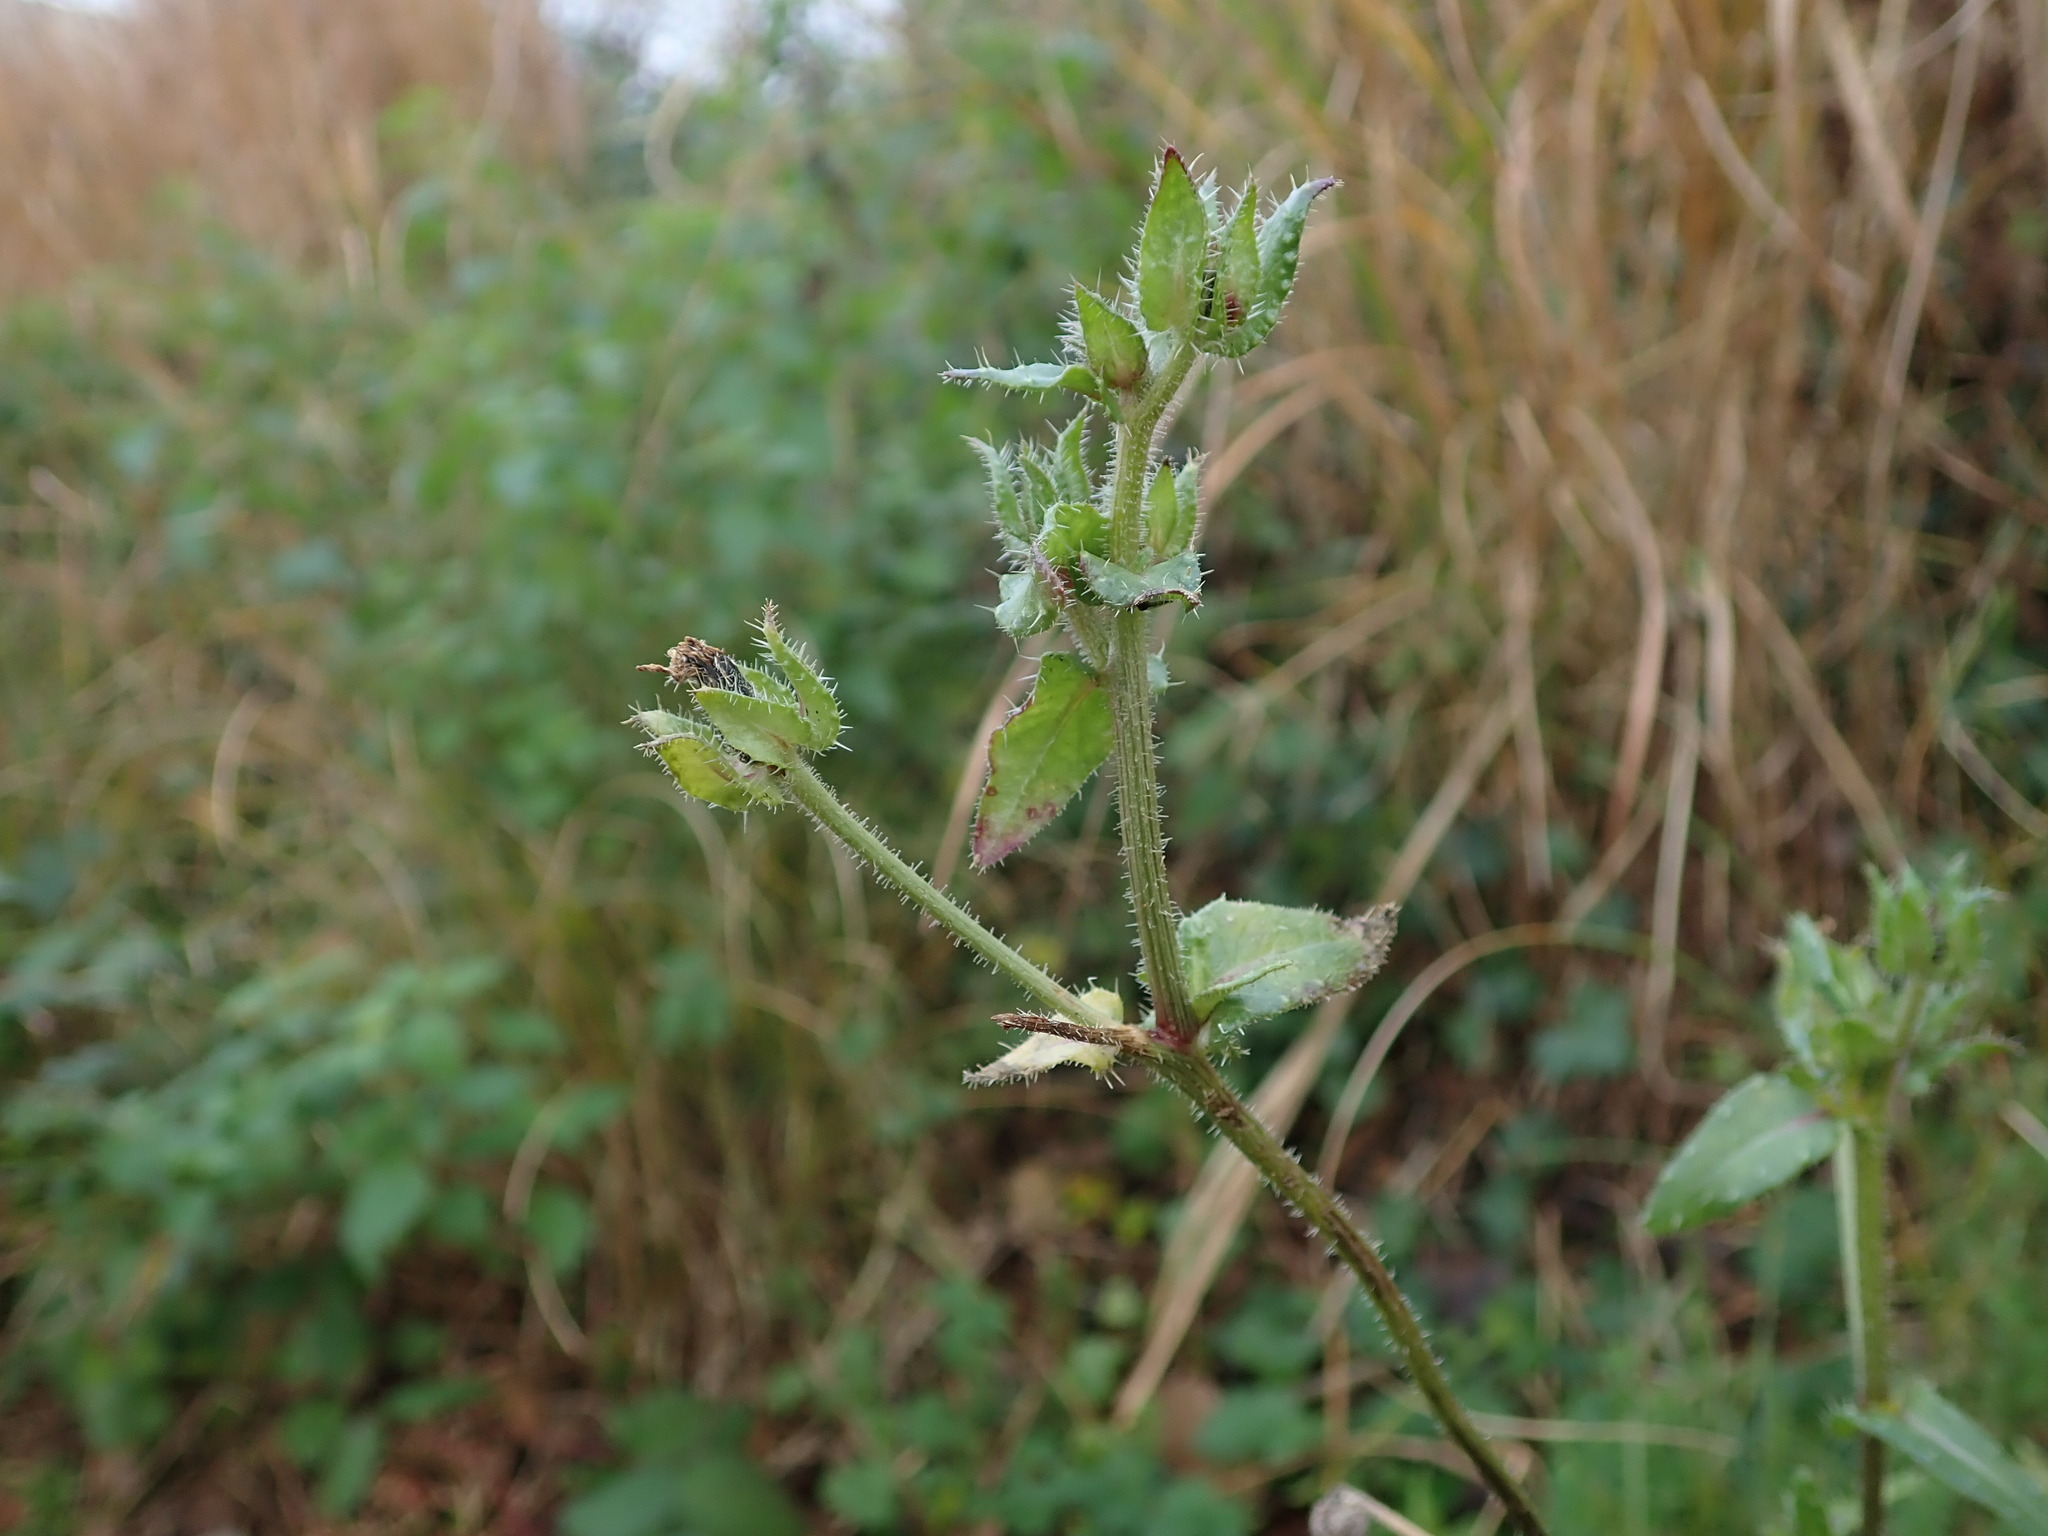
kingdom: Plantae
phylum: Tracheophyta
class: Magnoliopsida
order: Asterales
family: Asteraceae
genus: Helminthotheca
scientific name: Helminthotheca echioides
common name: Ox-tongue
